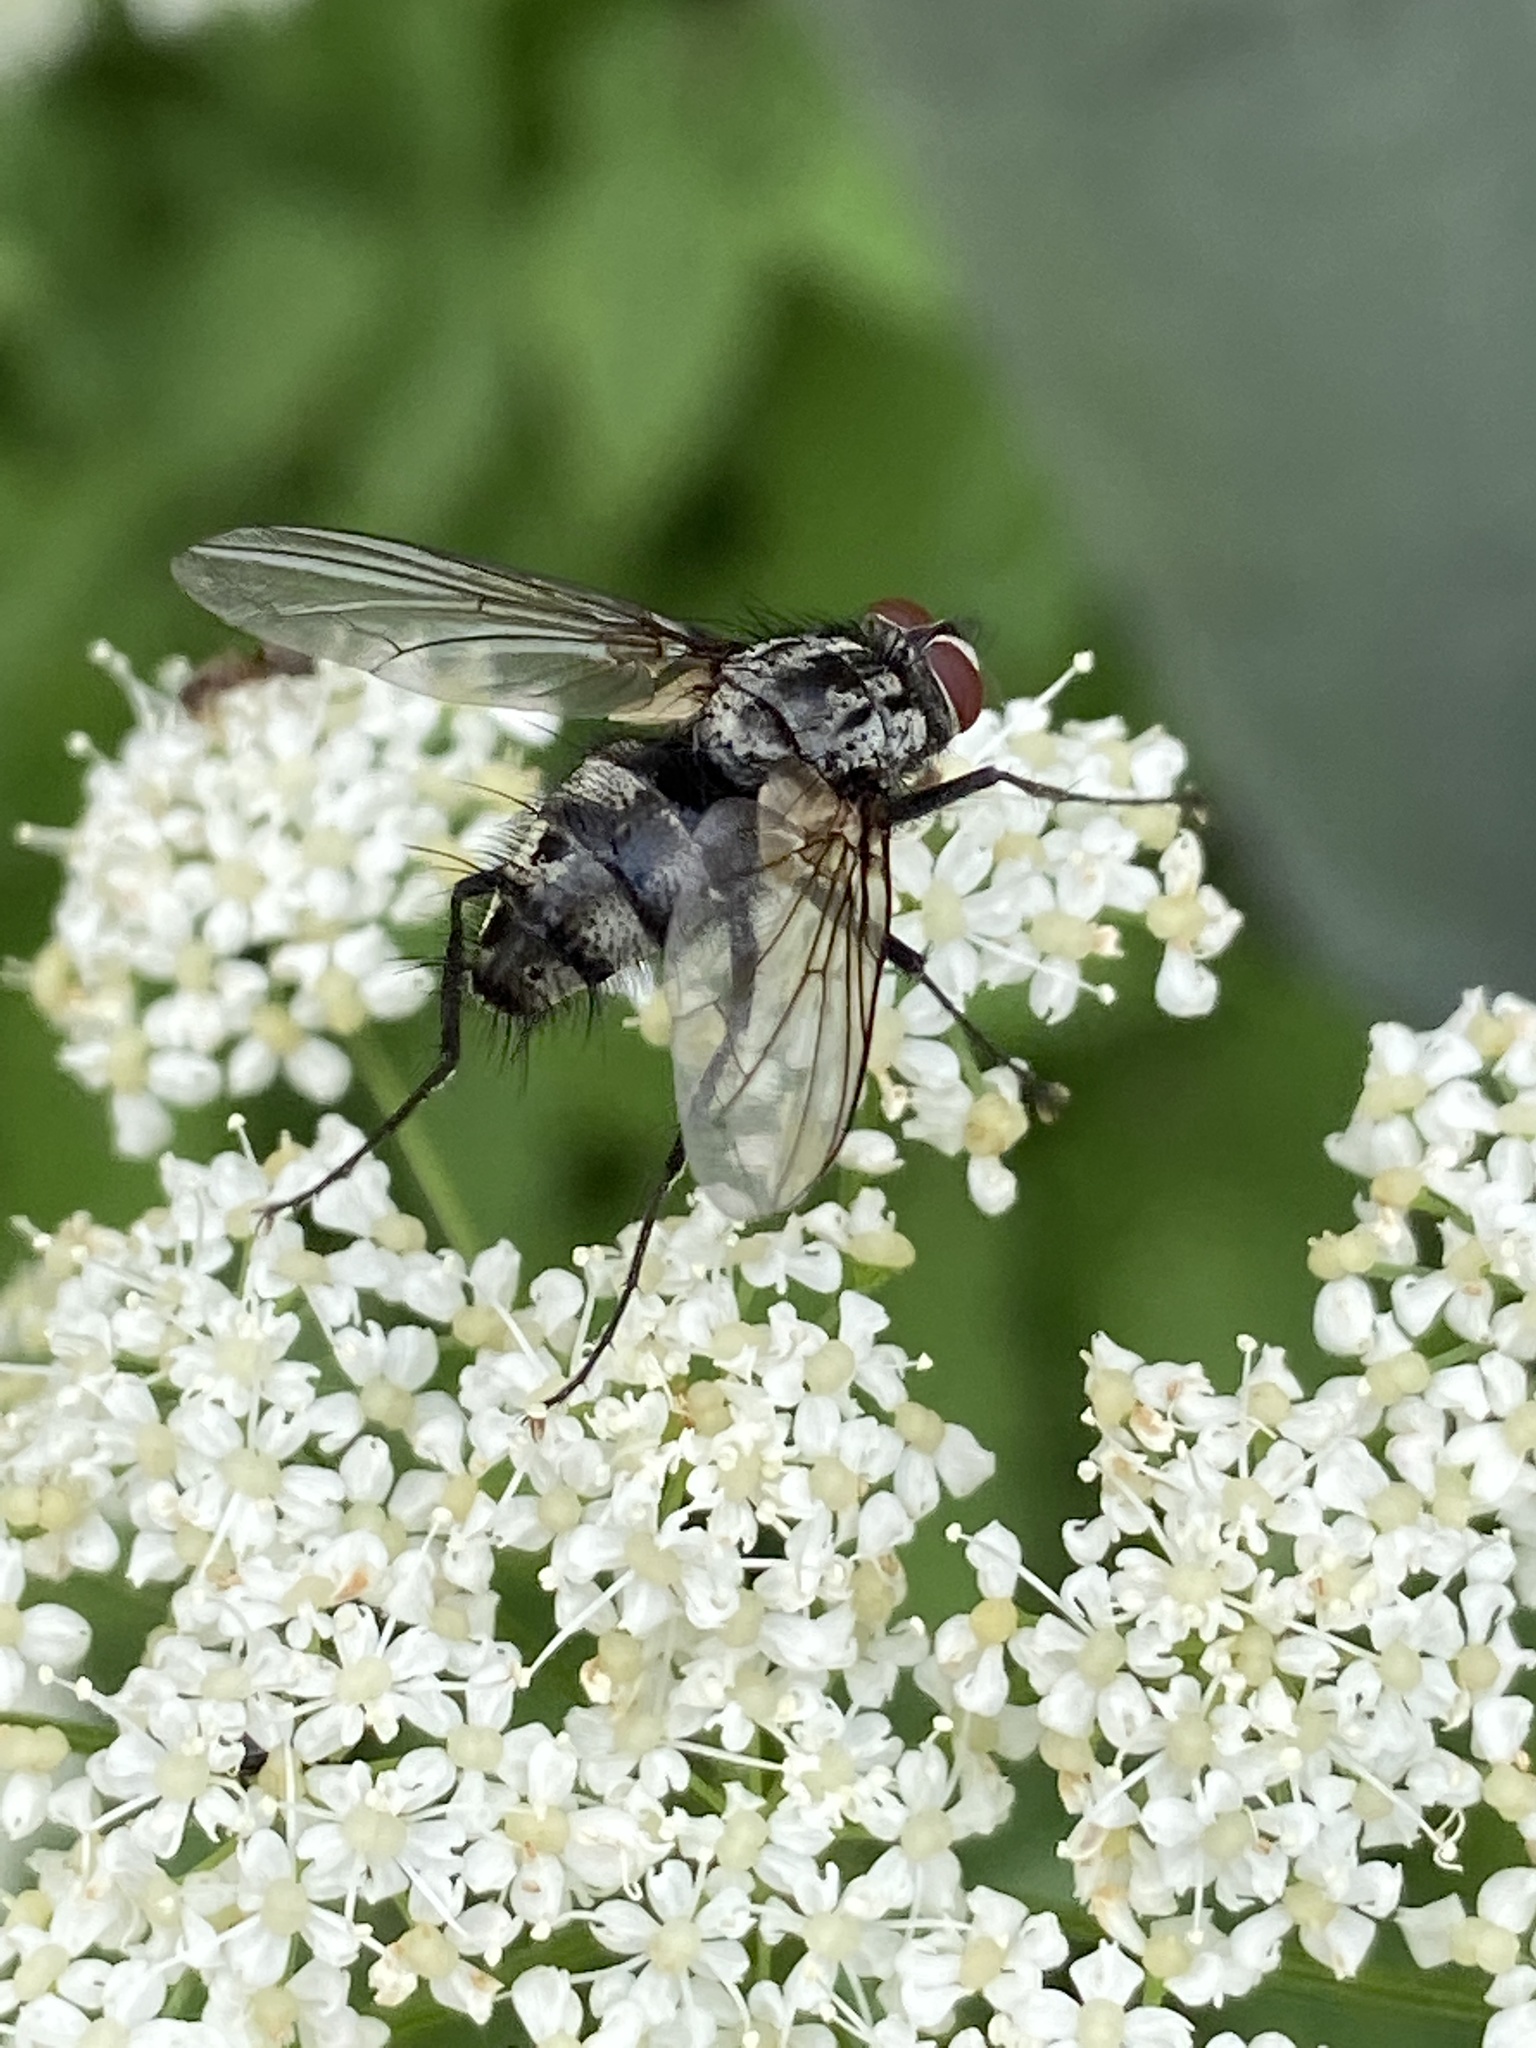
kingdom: Animalia
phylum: Arthropoda
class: Insecta
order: Diptera
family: Tachinidae
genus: Dinera
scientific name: Dinera ferina
